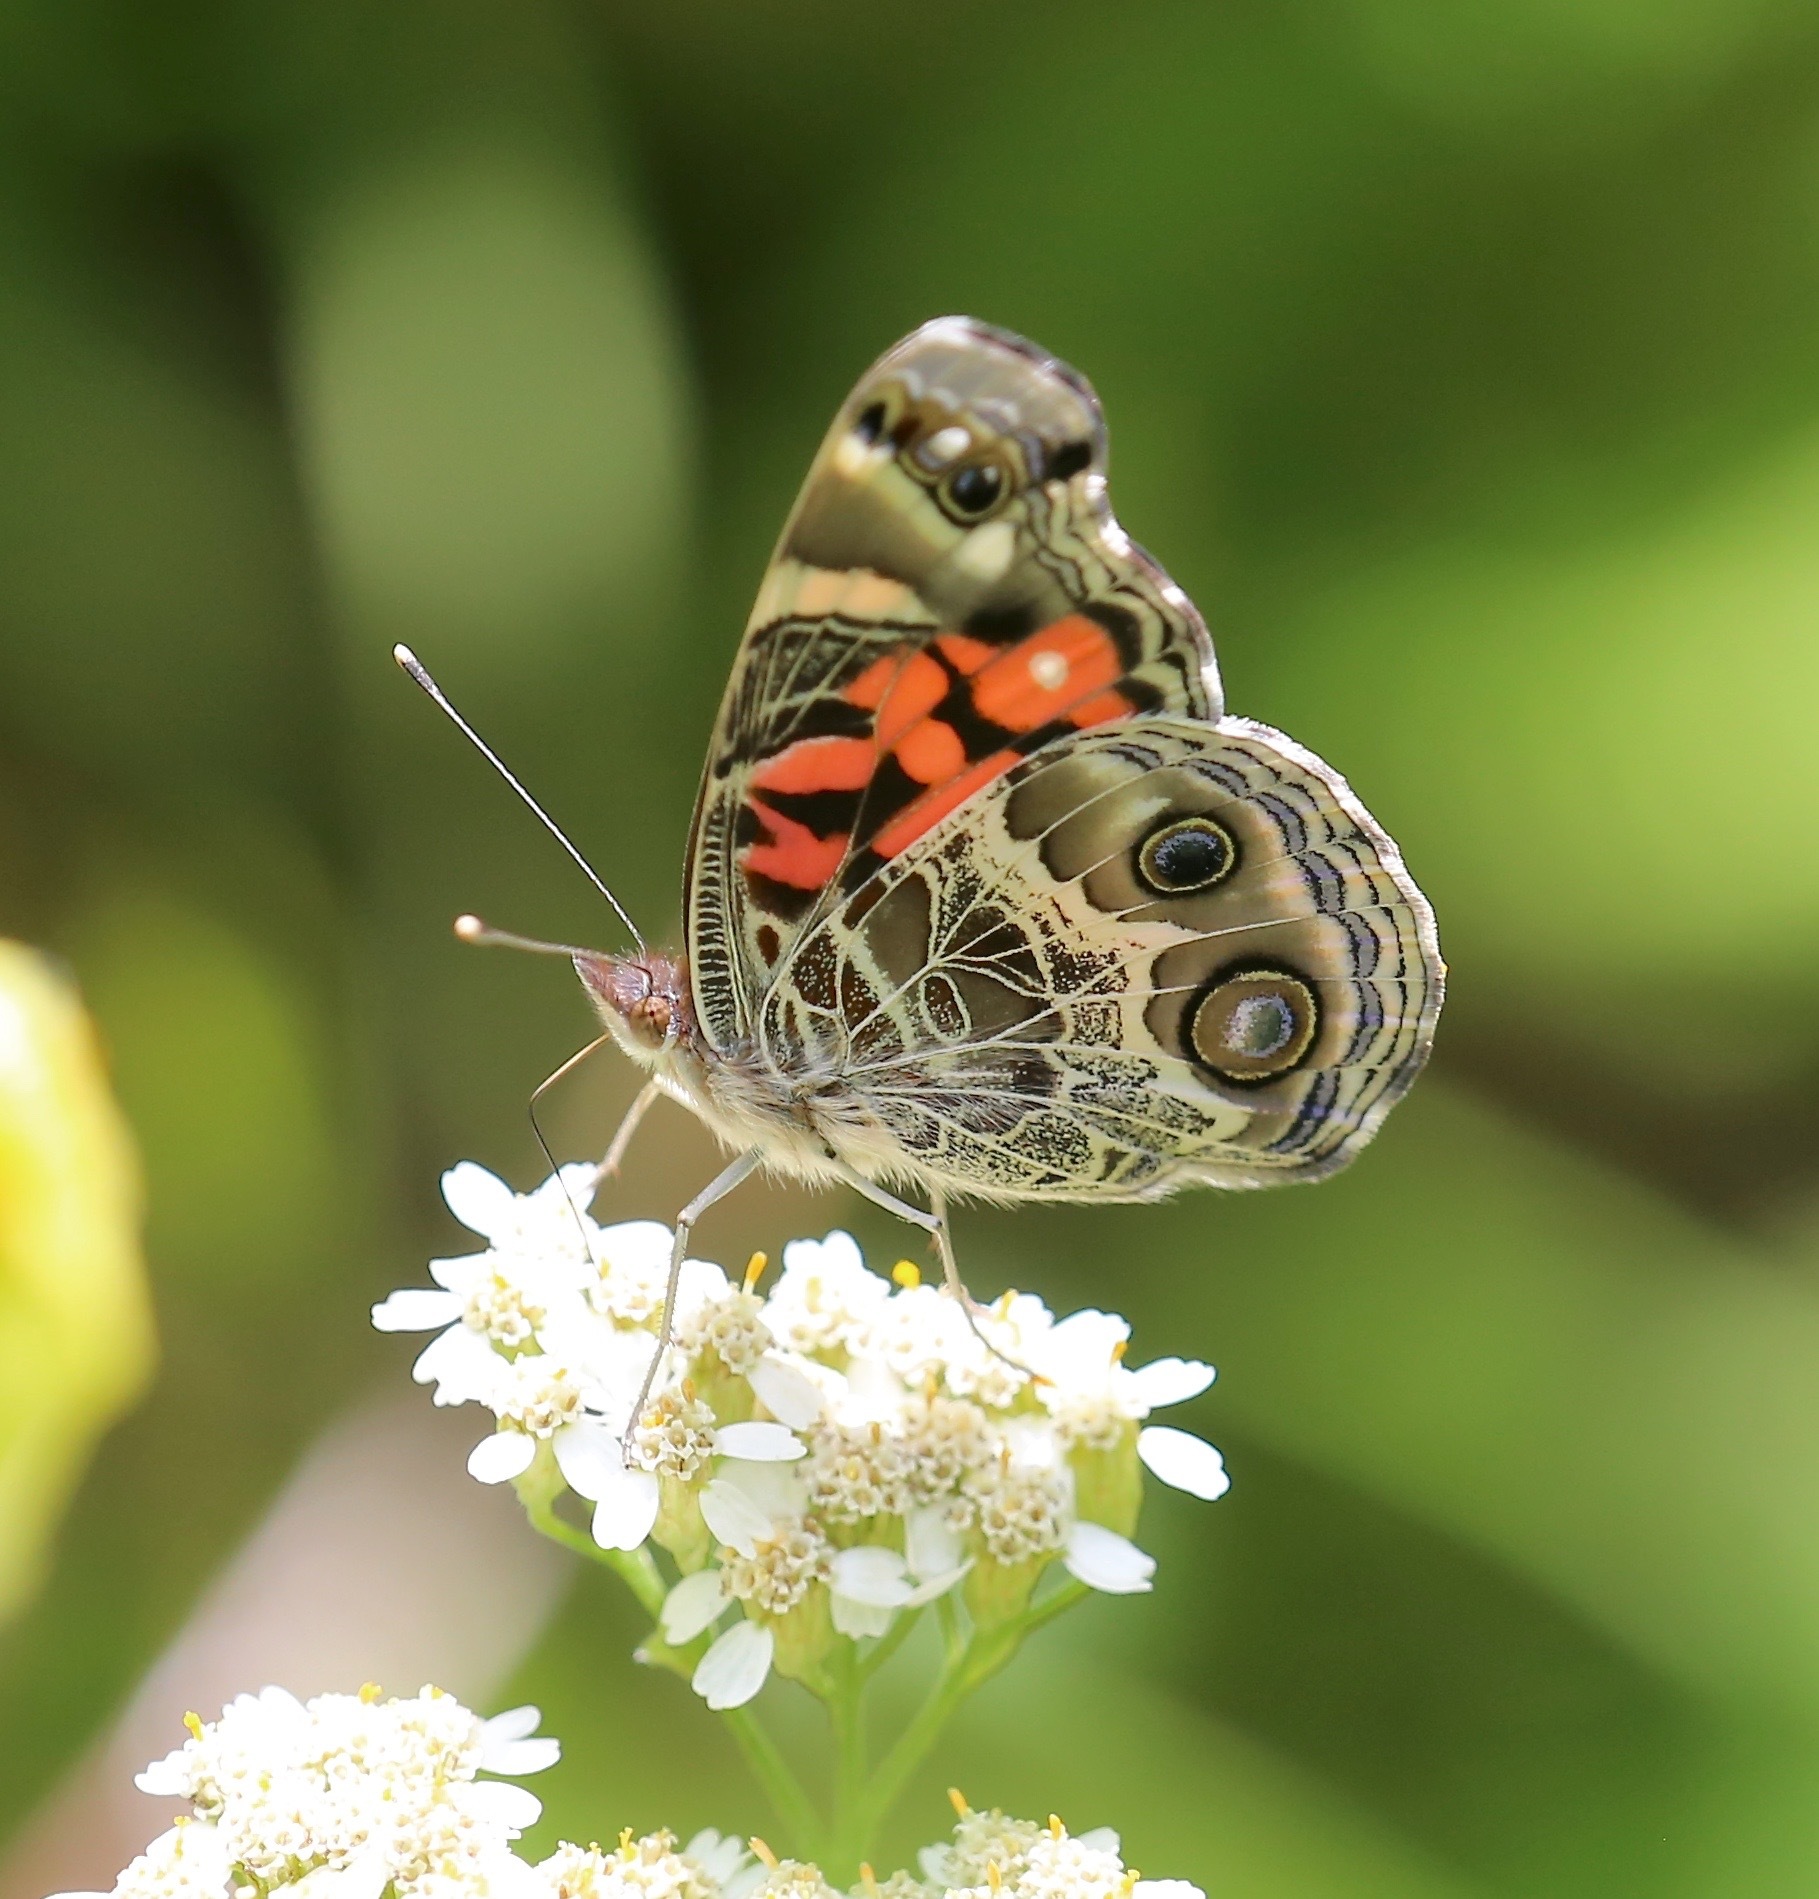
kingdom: Animalia
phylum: Arthropoda
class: Insecta
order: Lepidoptera
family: Nymphalidae
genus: Vanessa
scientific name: Vanessa virginiensis
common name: American lady
